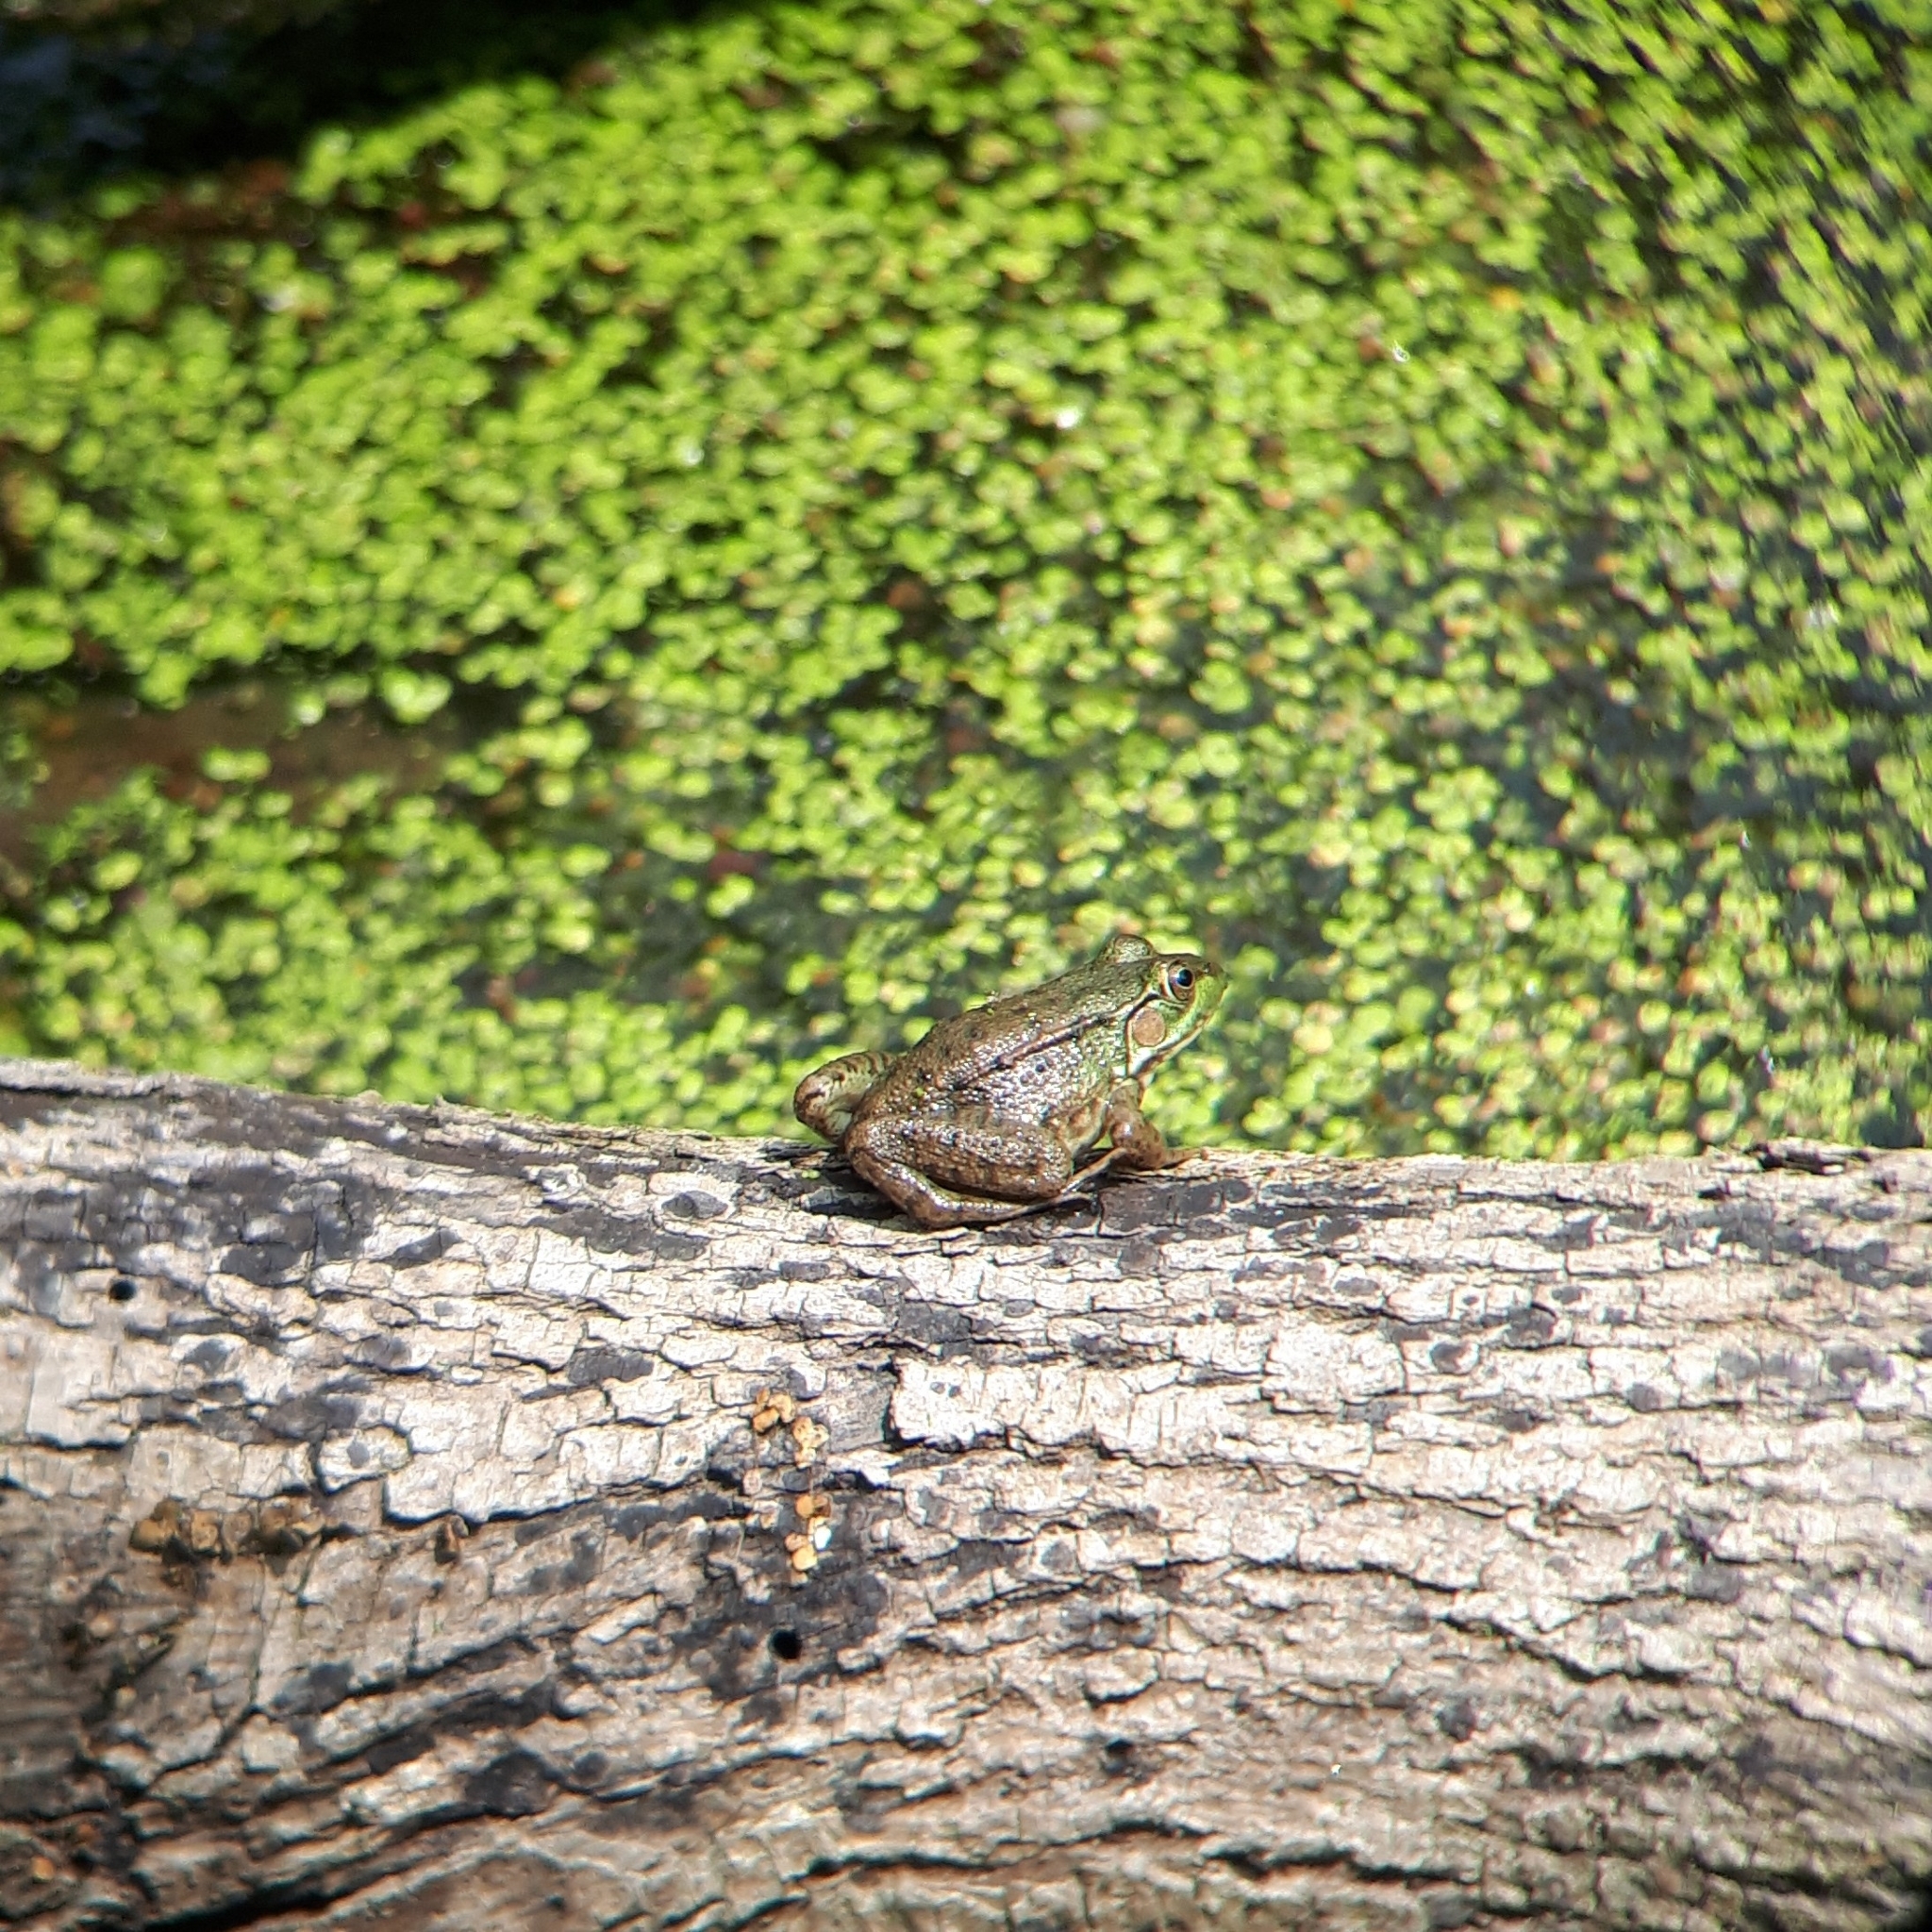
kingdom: Animalia
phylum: Chordata
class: Amphibia
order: Anura
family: Ranidae
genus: Lithobates
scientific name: Lithobates clamitans
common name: Green frog
